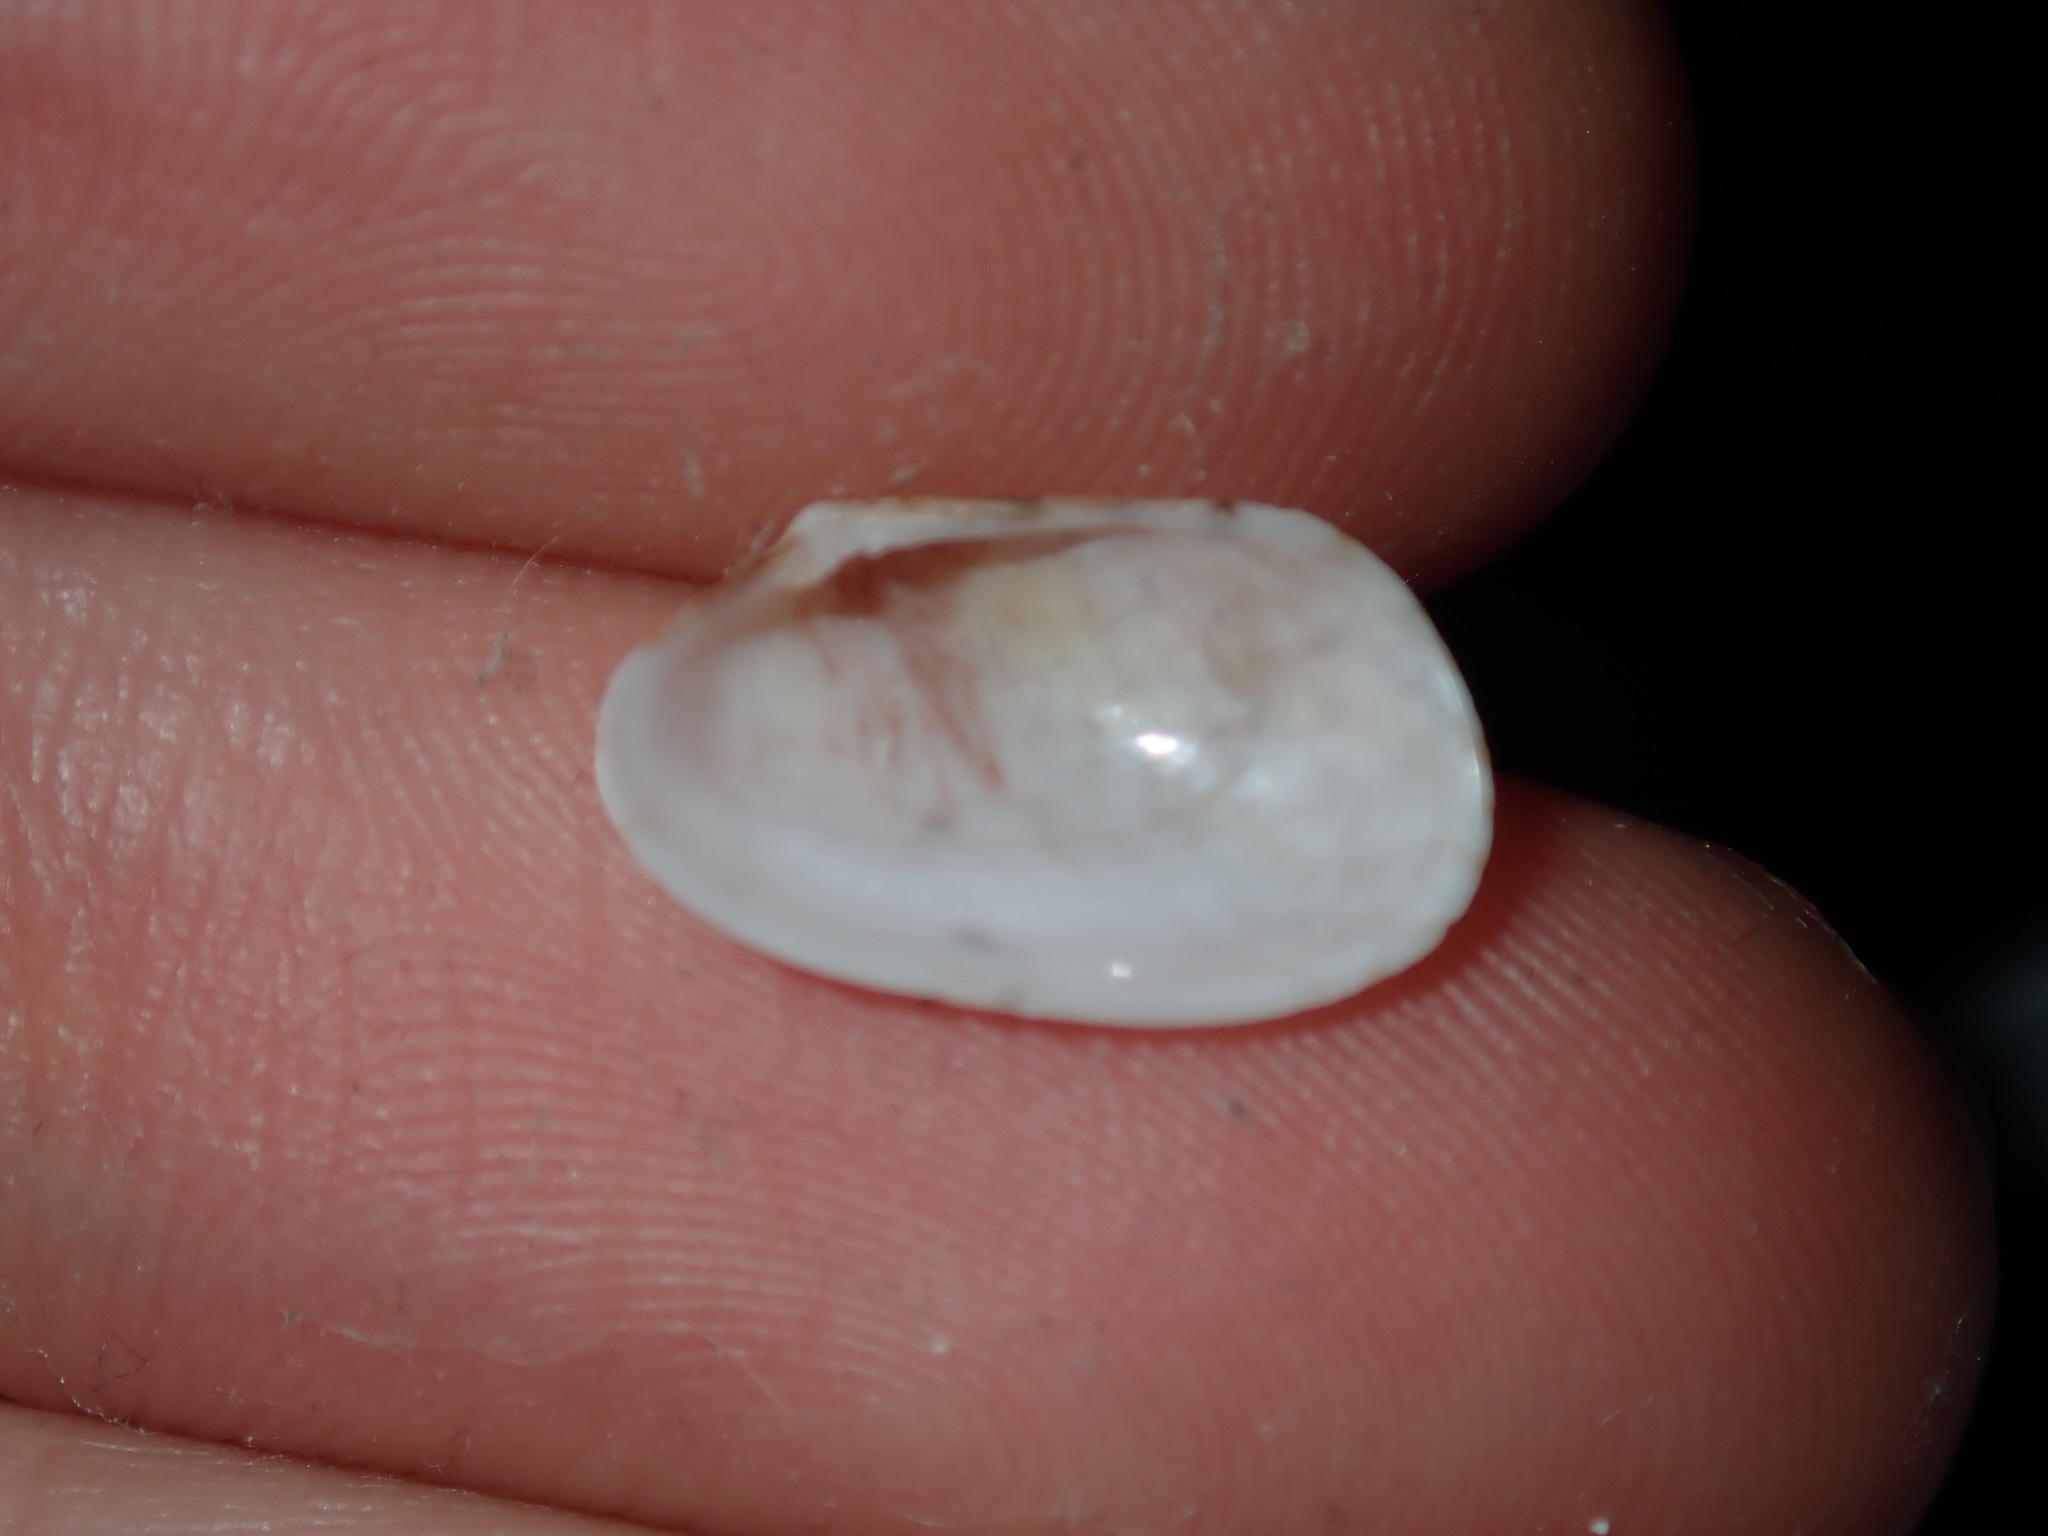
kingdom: Animalia
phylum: Mollusca
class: Bivalvia
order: Venerida
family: Veneridae
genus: Venerupis
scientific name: Venerupis anomala
